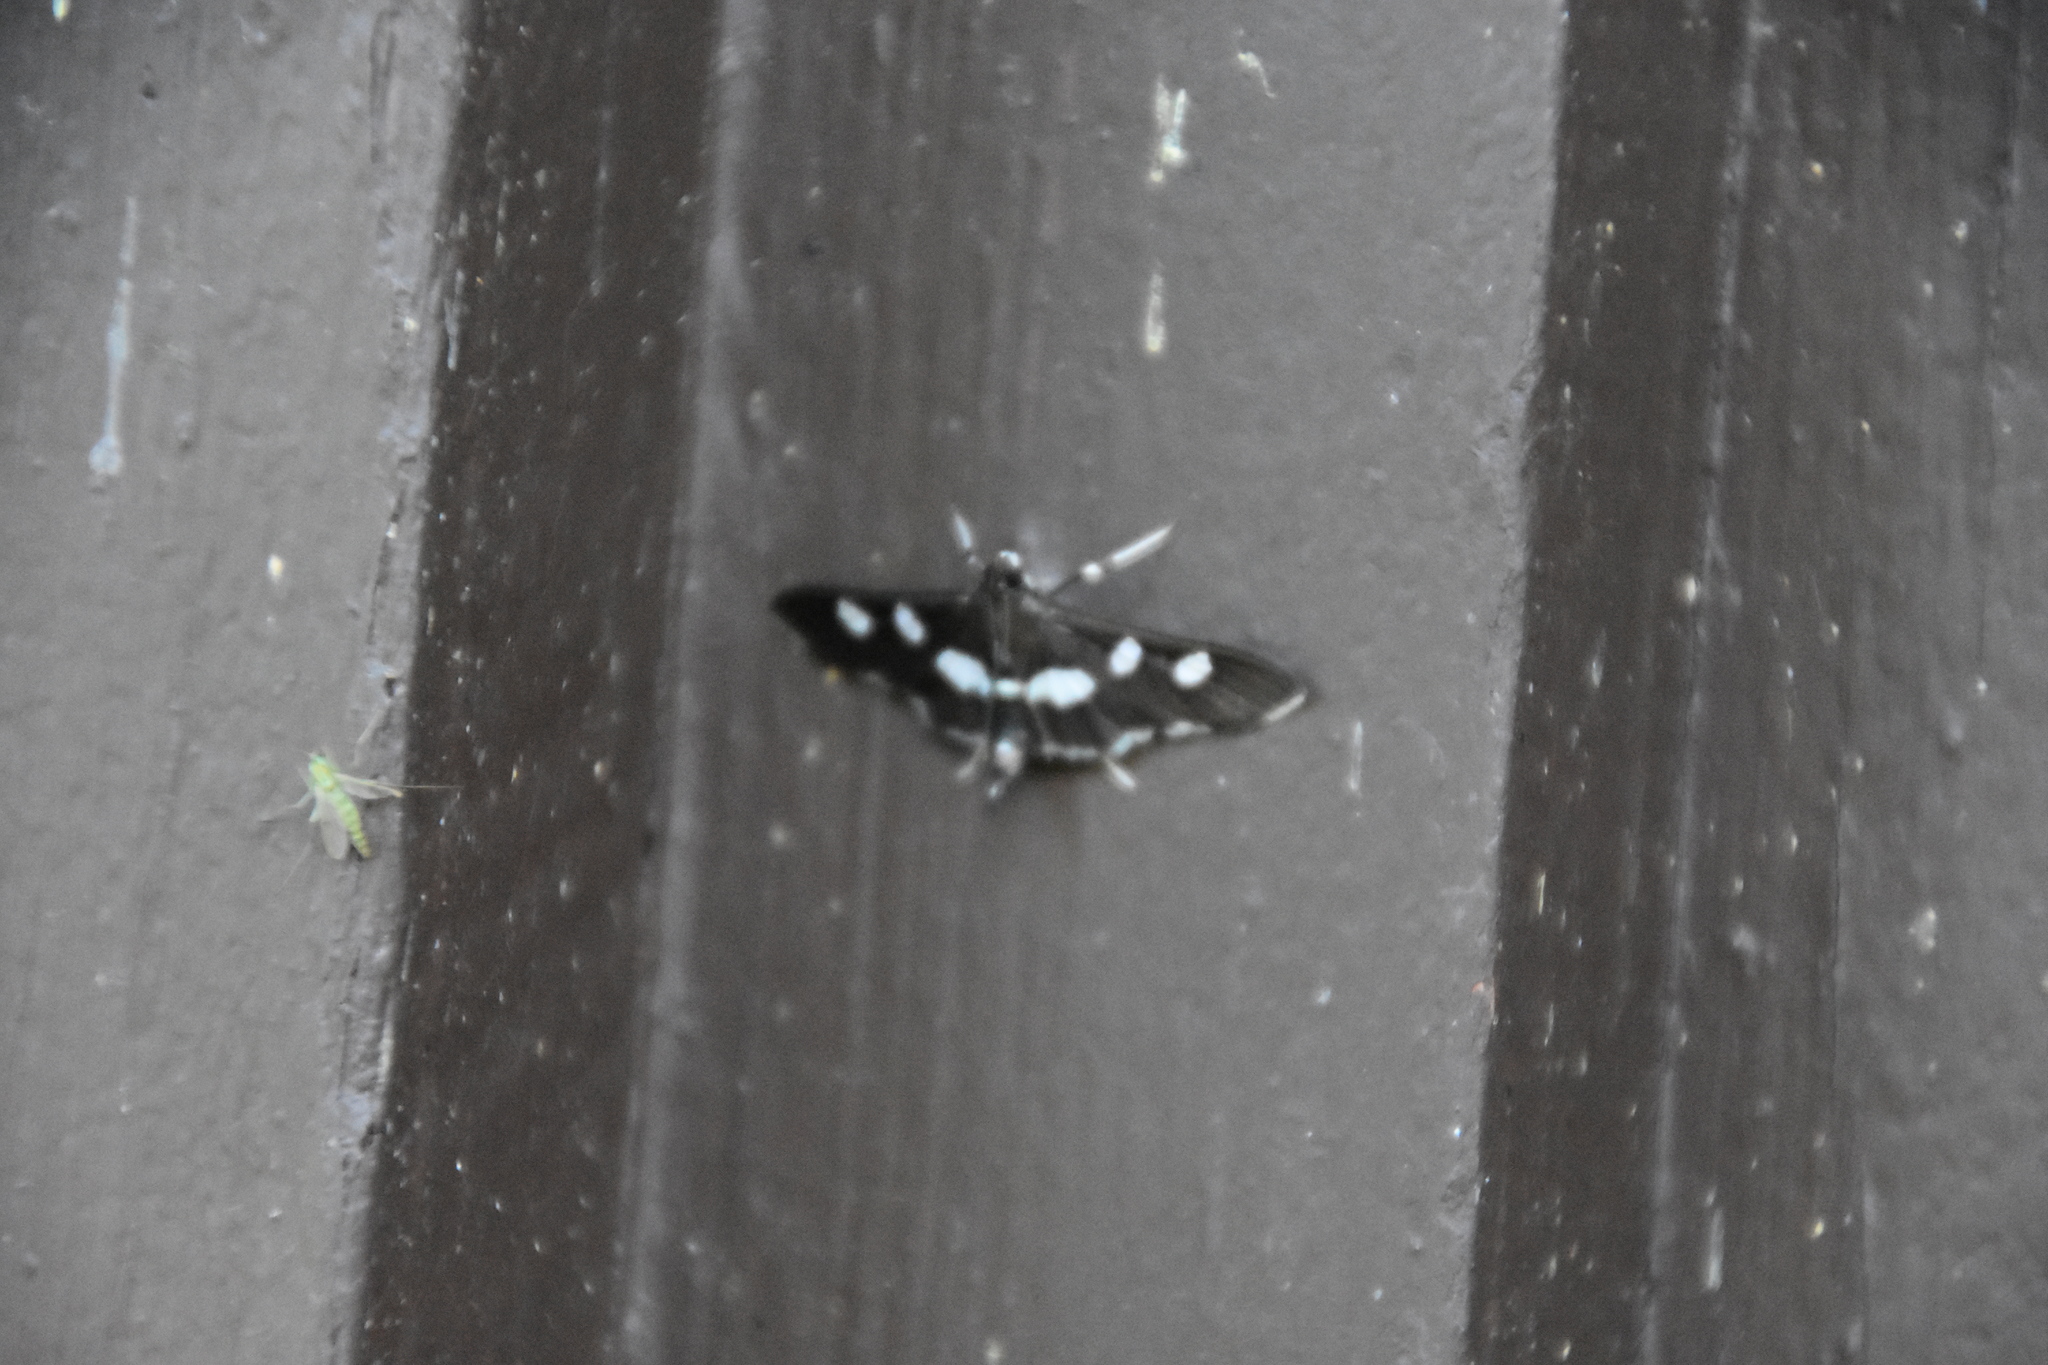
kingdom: Animalia
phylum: Arthropoda
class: Insecta
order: Lepidoptera
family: Crambidae
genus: Desmia
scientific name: Desmia
